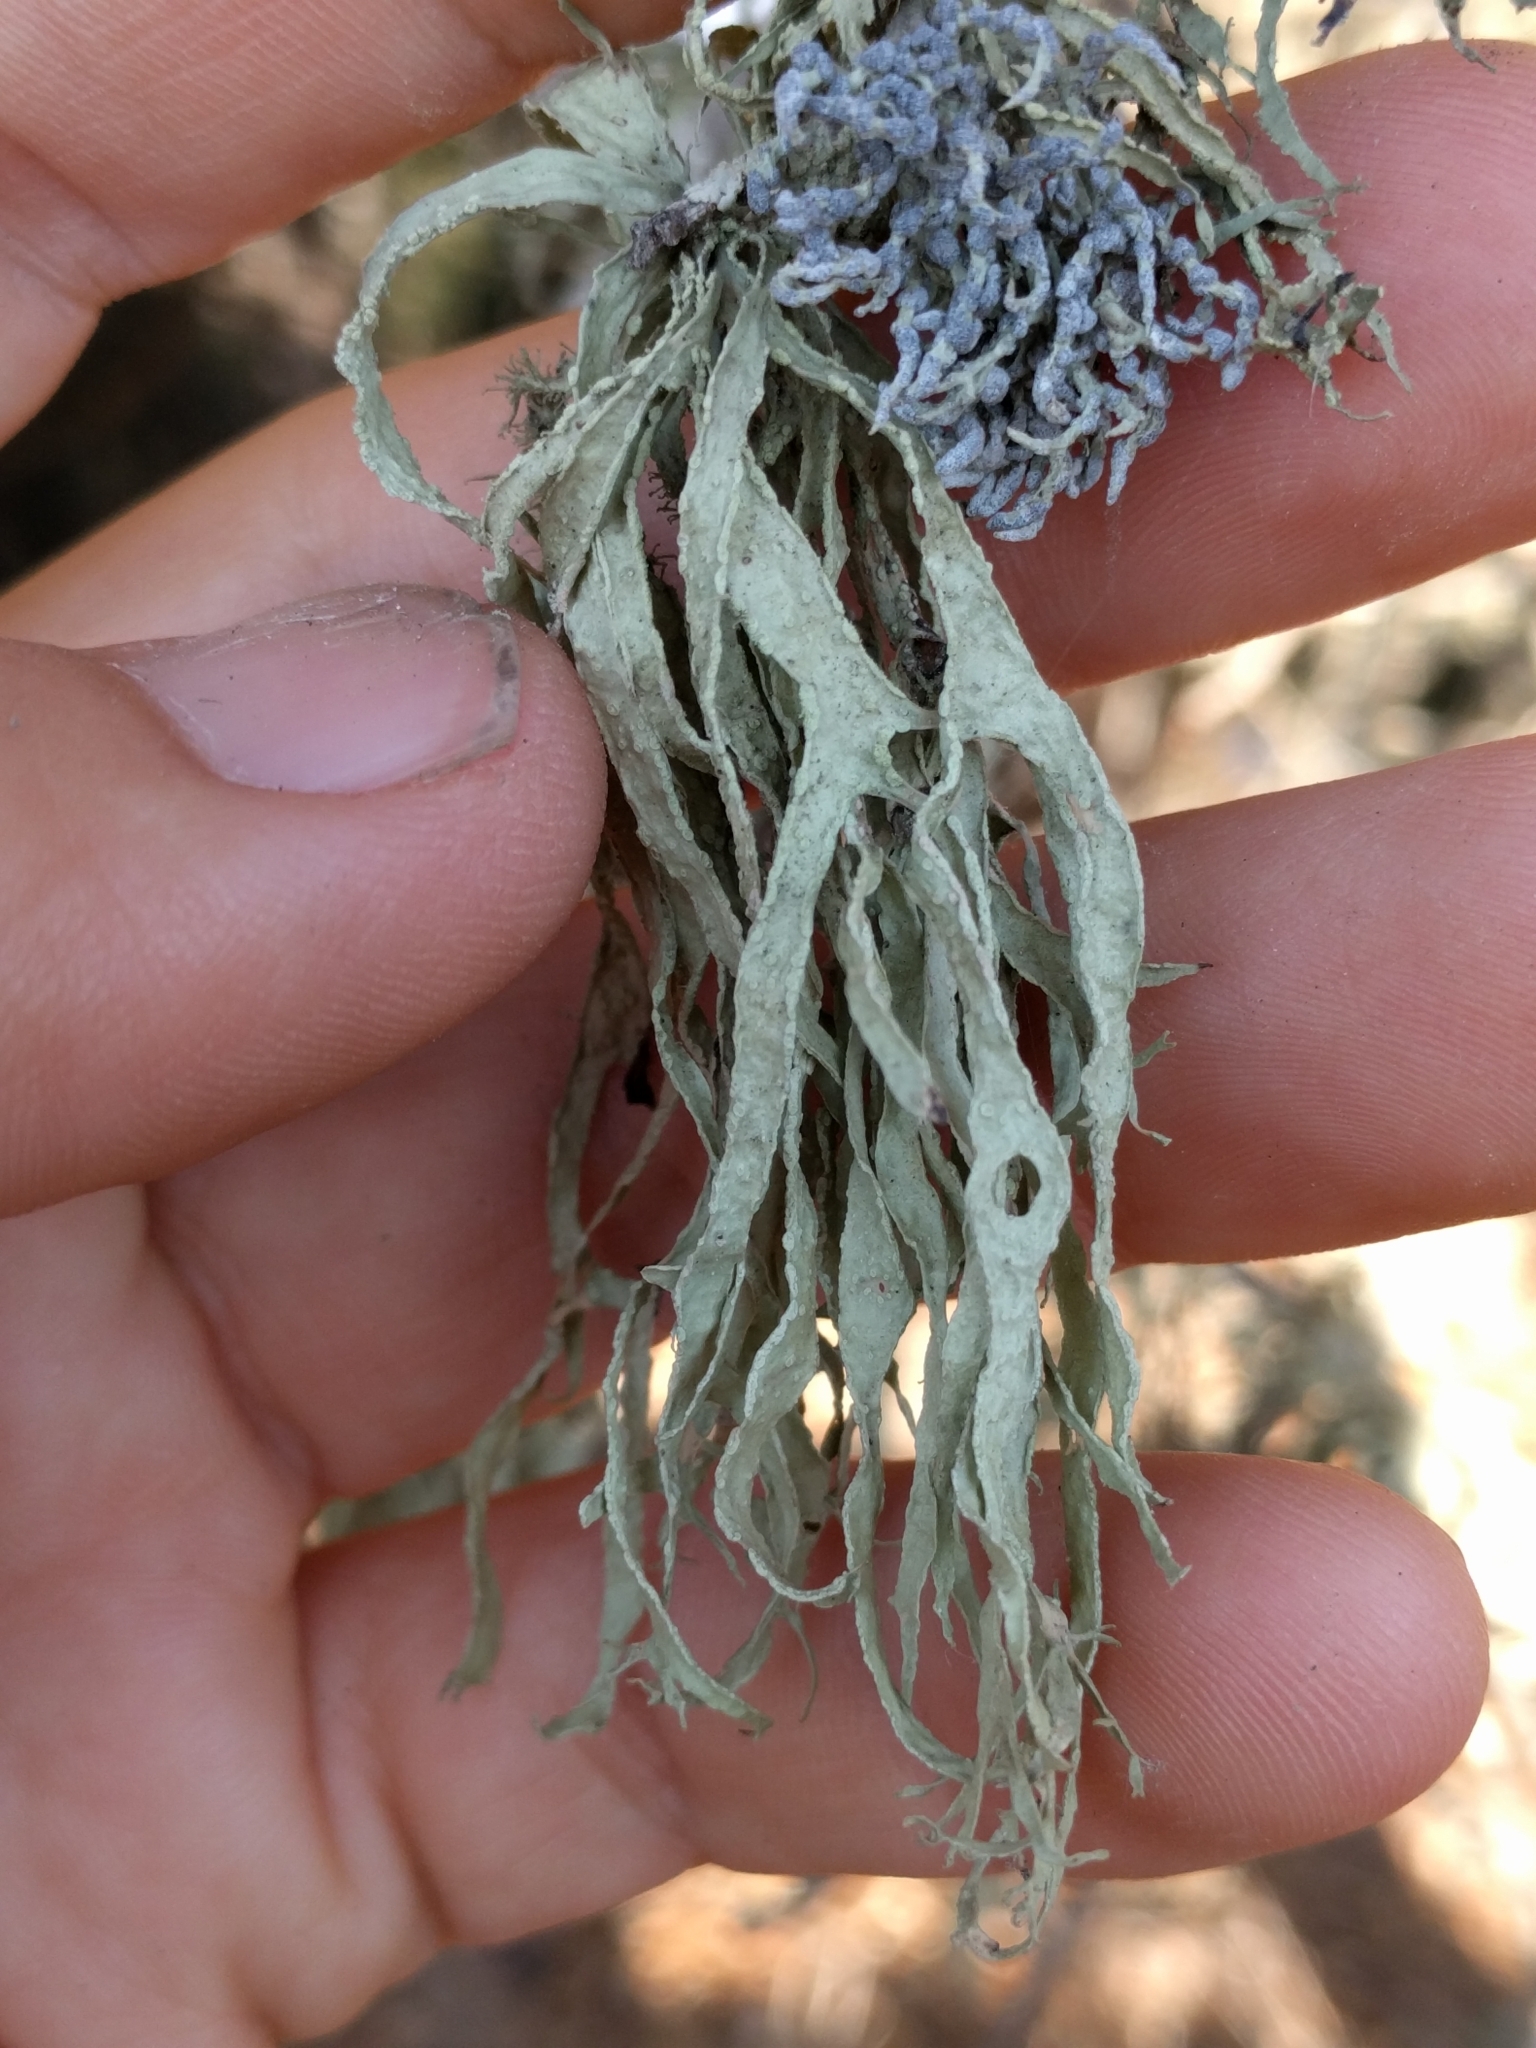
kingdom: Fungi
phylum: Ascomycota
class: Lecanoromycetes
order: Lecanorales
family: Ramalinaceae
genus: Ramalina
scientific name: Ramalina subleptocarpha
